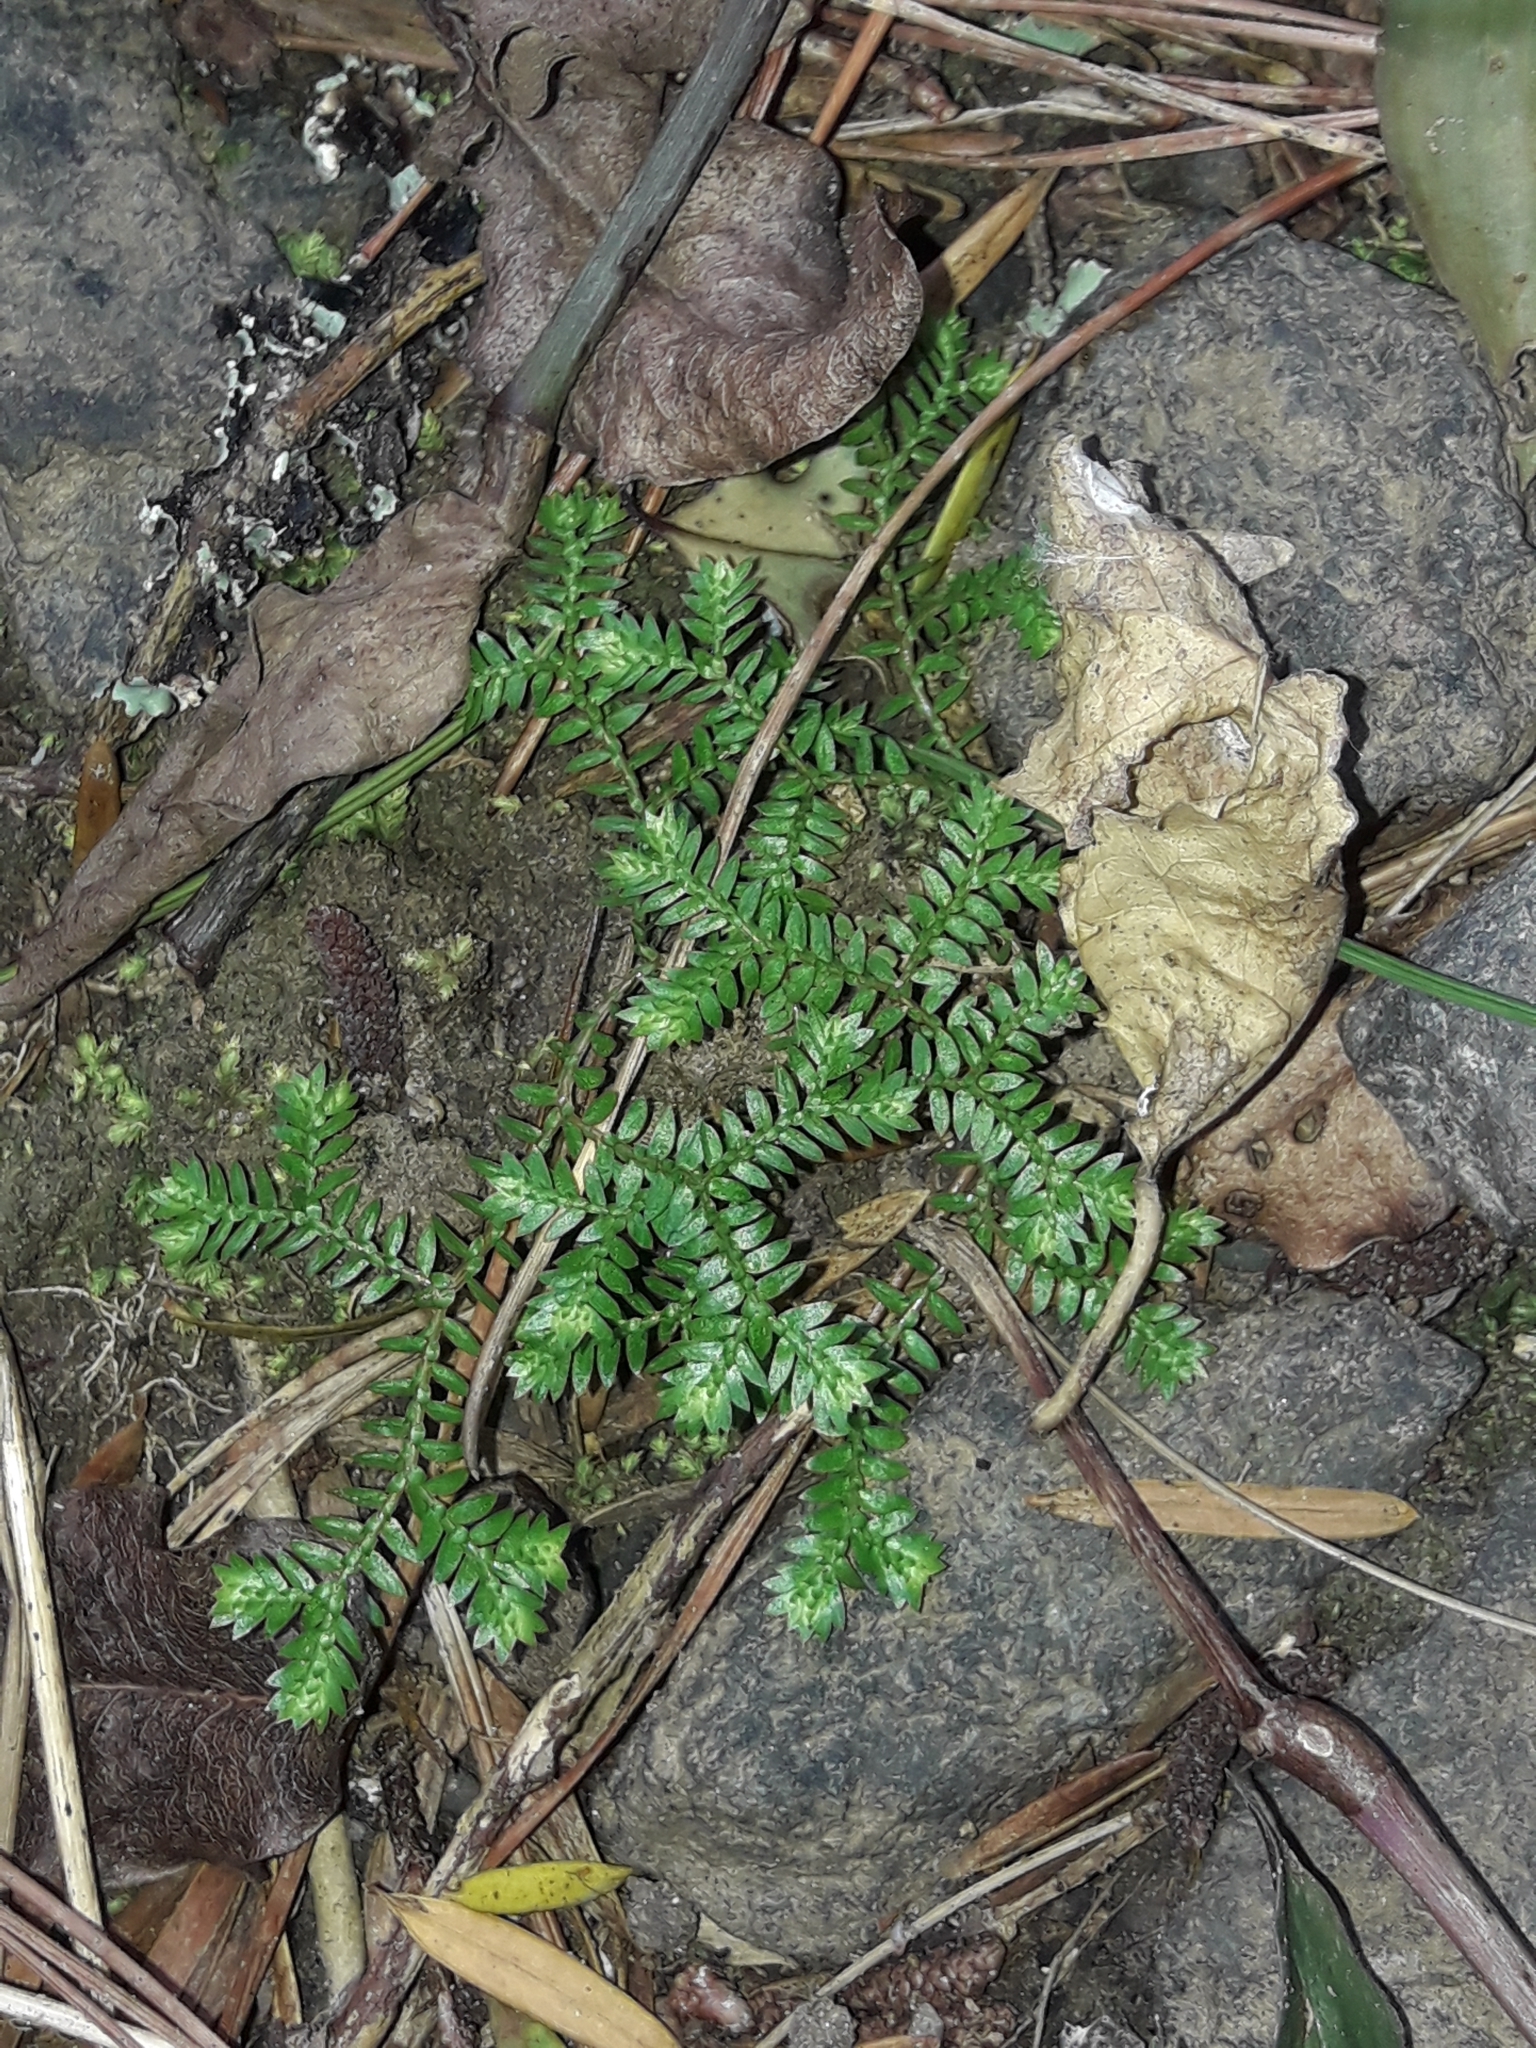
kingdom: Plantae
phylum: Tracheophyta
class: Lycopodiopsida
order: Selaginellales
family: Selaginellaceae
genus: Selaginella
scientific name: Selaginella kraussiana
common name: Krauss' spikemoss
